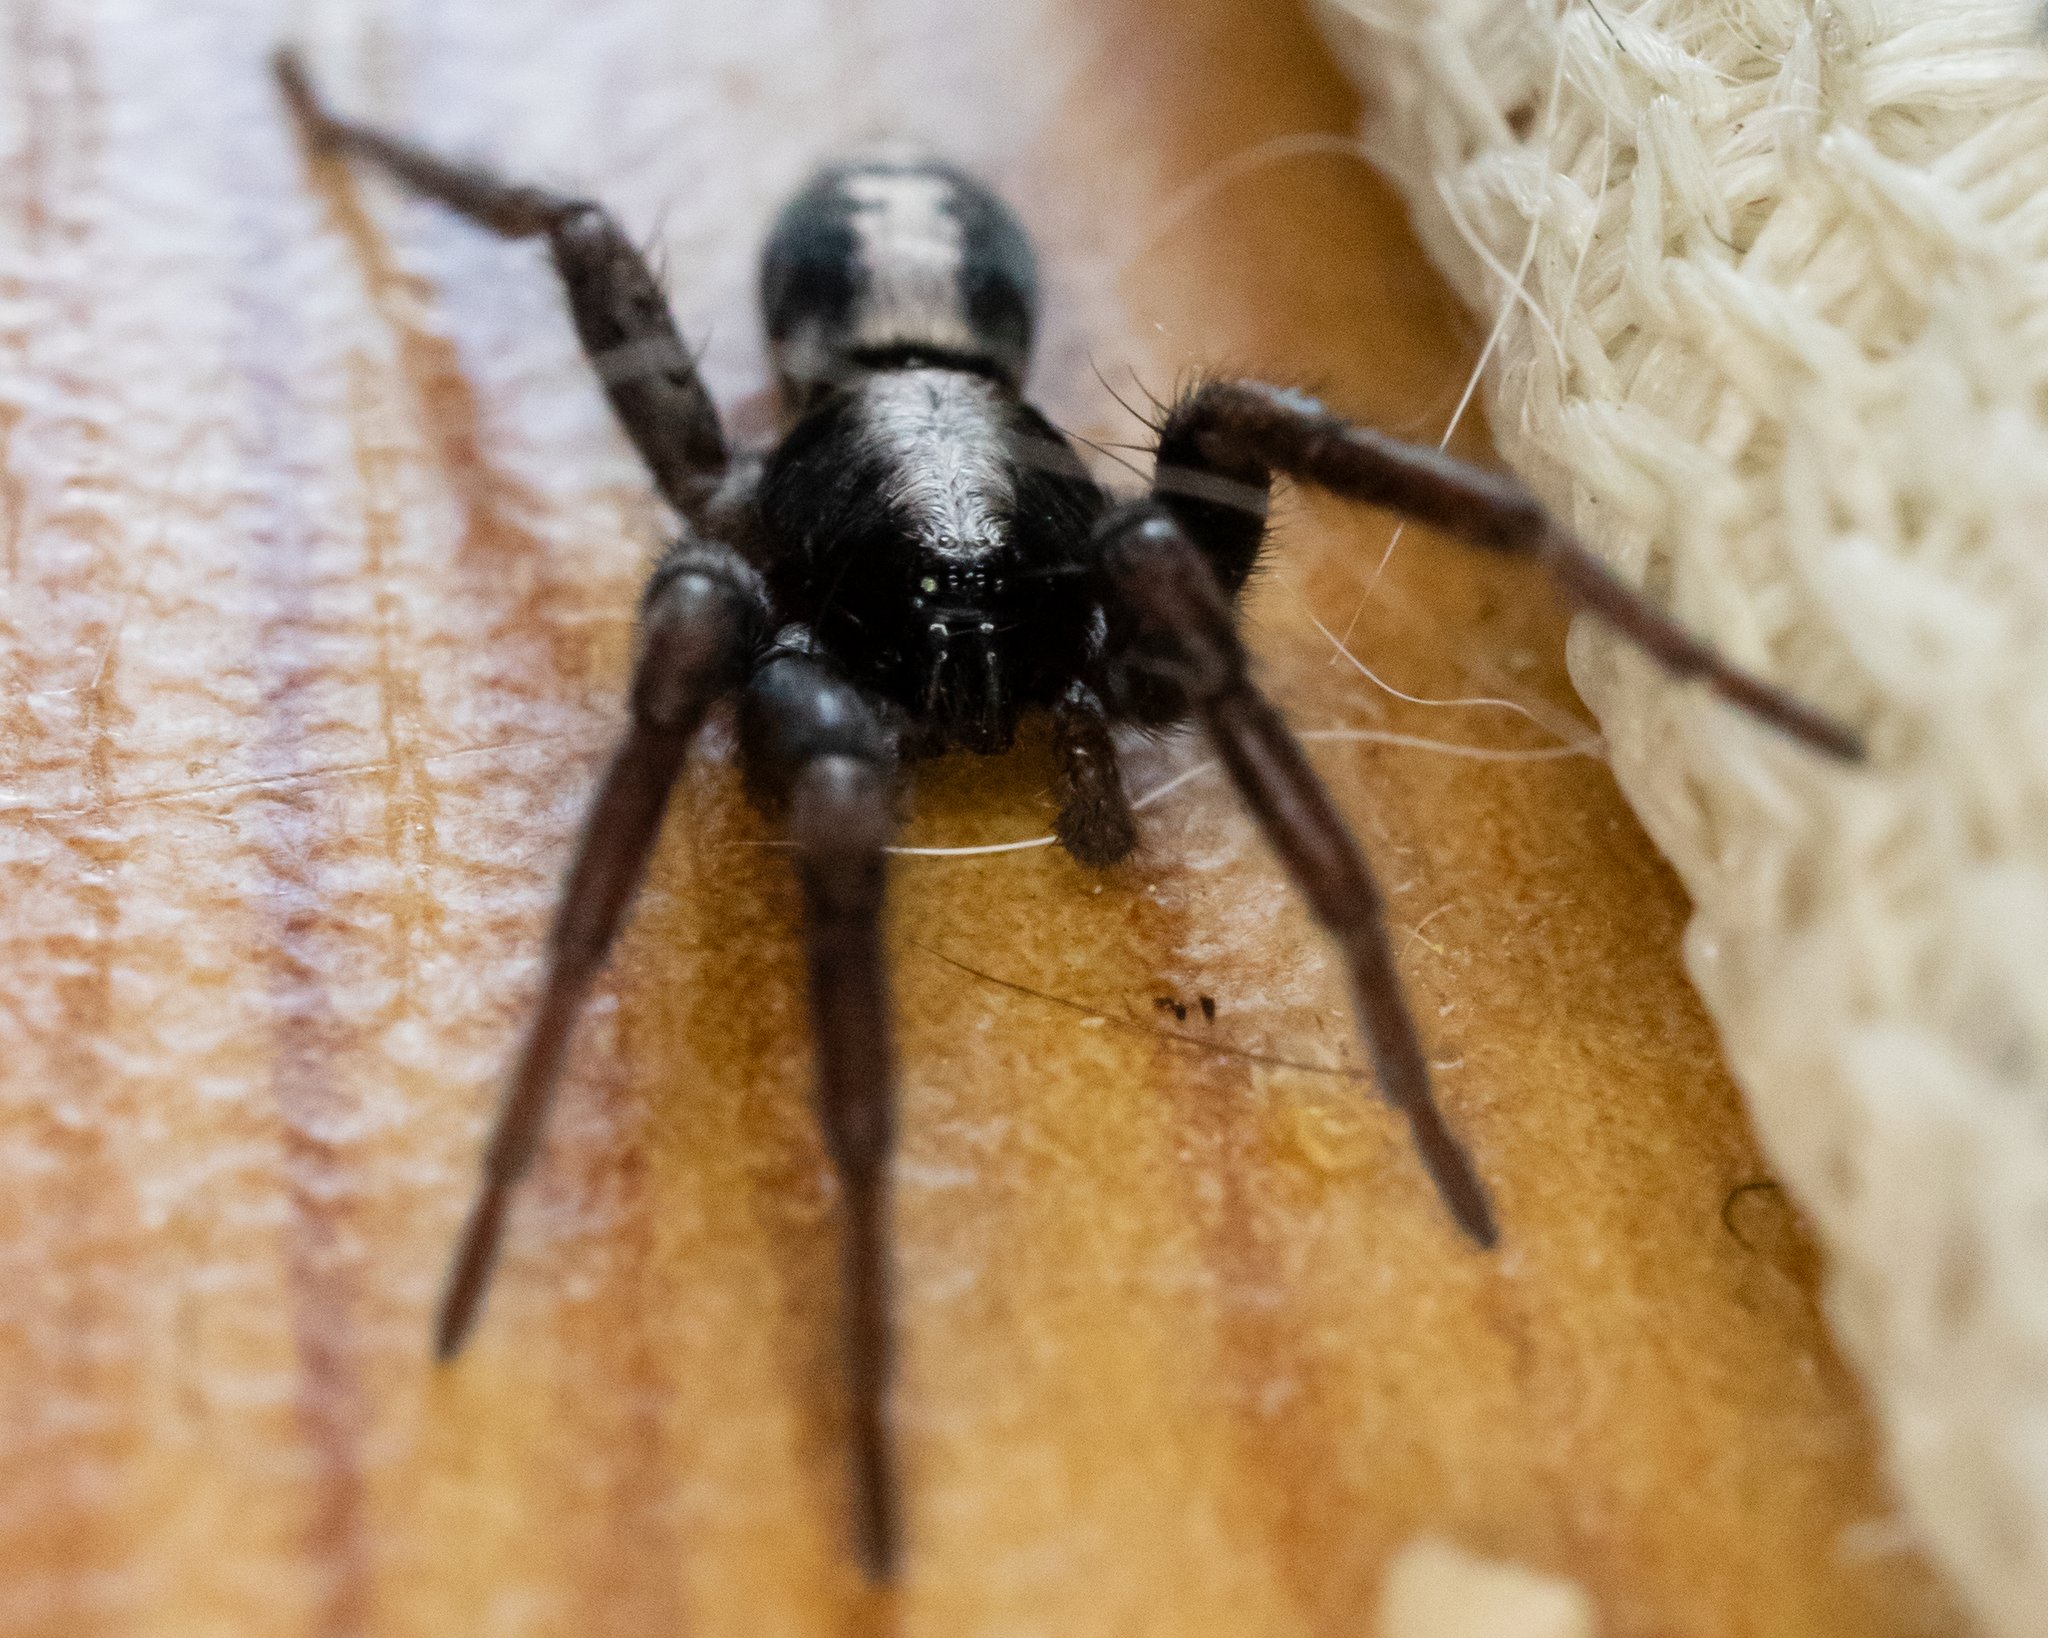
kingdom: Animalia
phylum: Arthropoda
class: Arachnida
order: Araneae
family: Gnaphosidae
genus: Herpyllus
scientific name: Herpyllus ecclesiasticus
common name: Eastern parson spider
